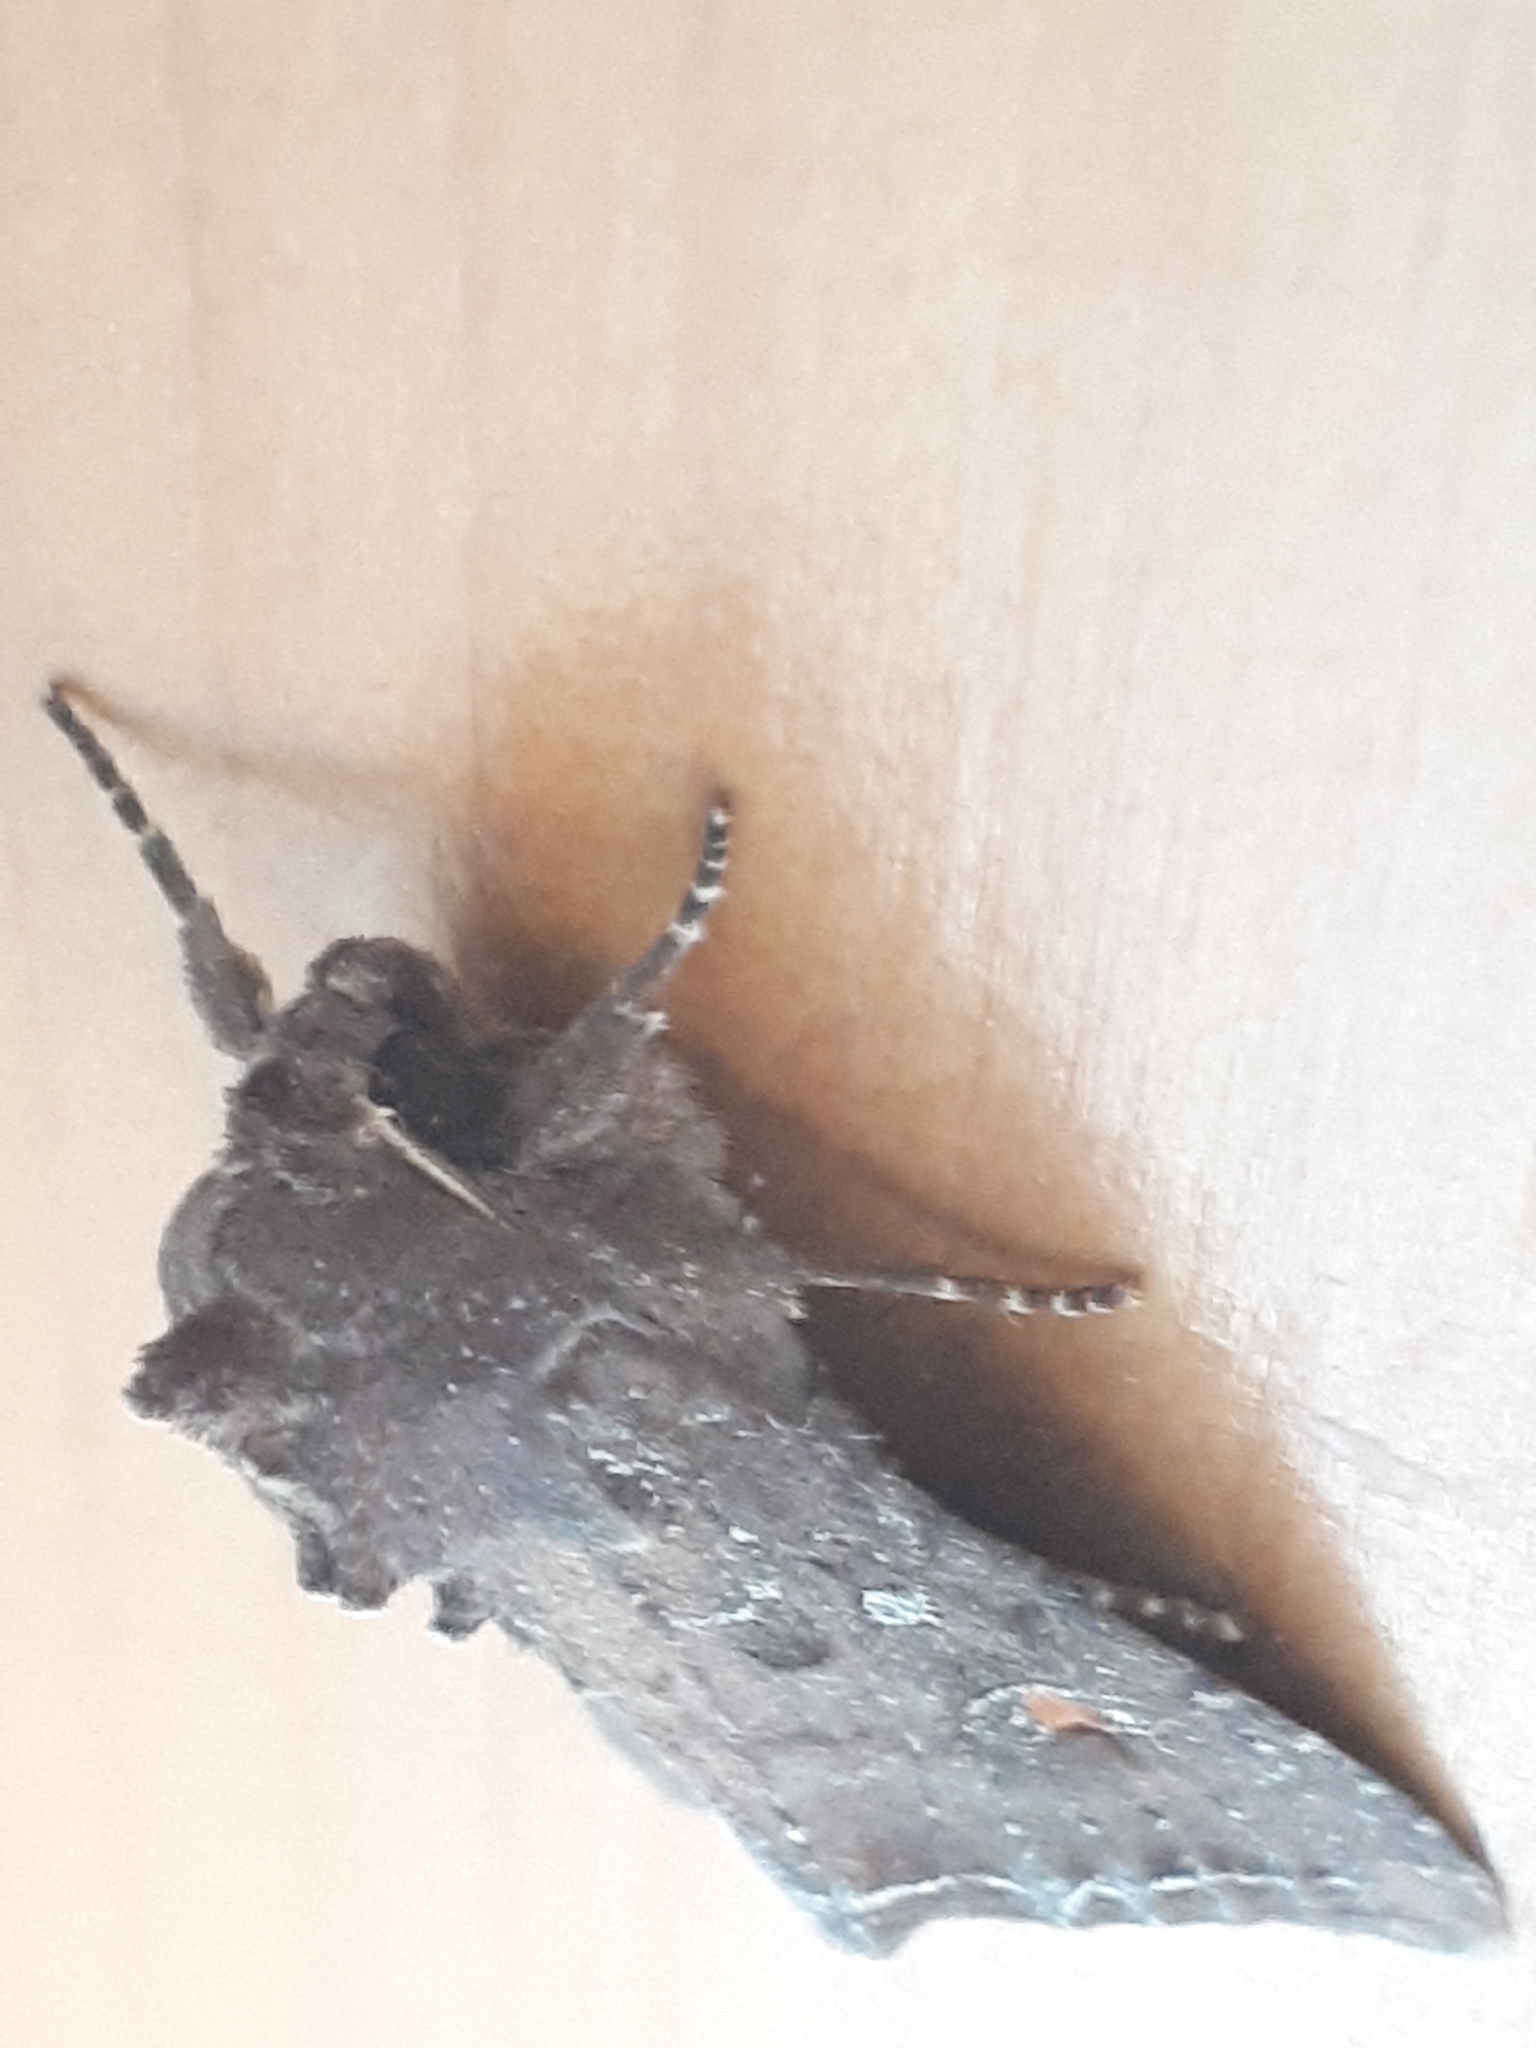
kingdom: Animalia
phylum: Arthropoda
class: Insecta
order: Lepidoptera
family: Noctuidae
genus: Lacanobia
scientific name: Lacanobia oleracea
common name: Bright-line brown-eye
